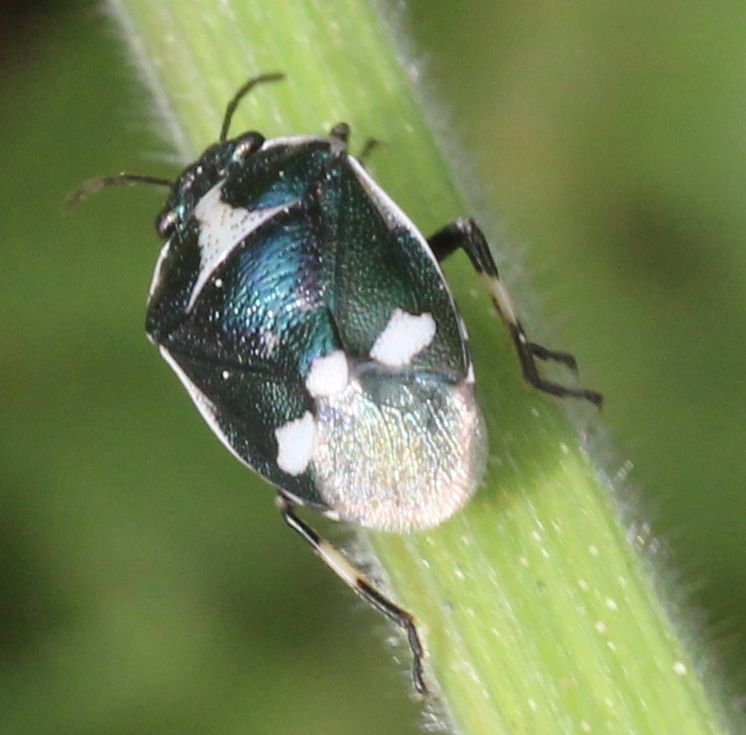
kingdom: Animalia
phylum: Arthropoda
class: Insecta
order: Hemiptera
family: Pentatomidae
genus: Eurydema
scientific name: Eurydema oleracea
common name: Cabbage bug
